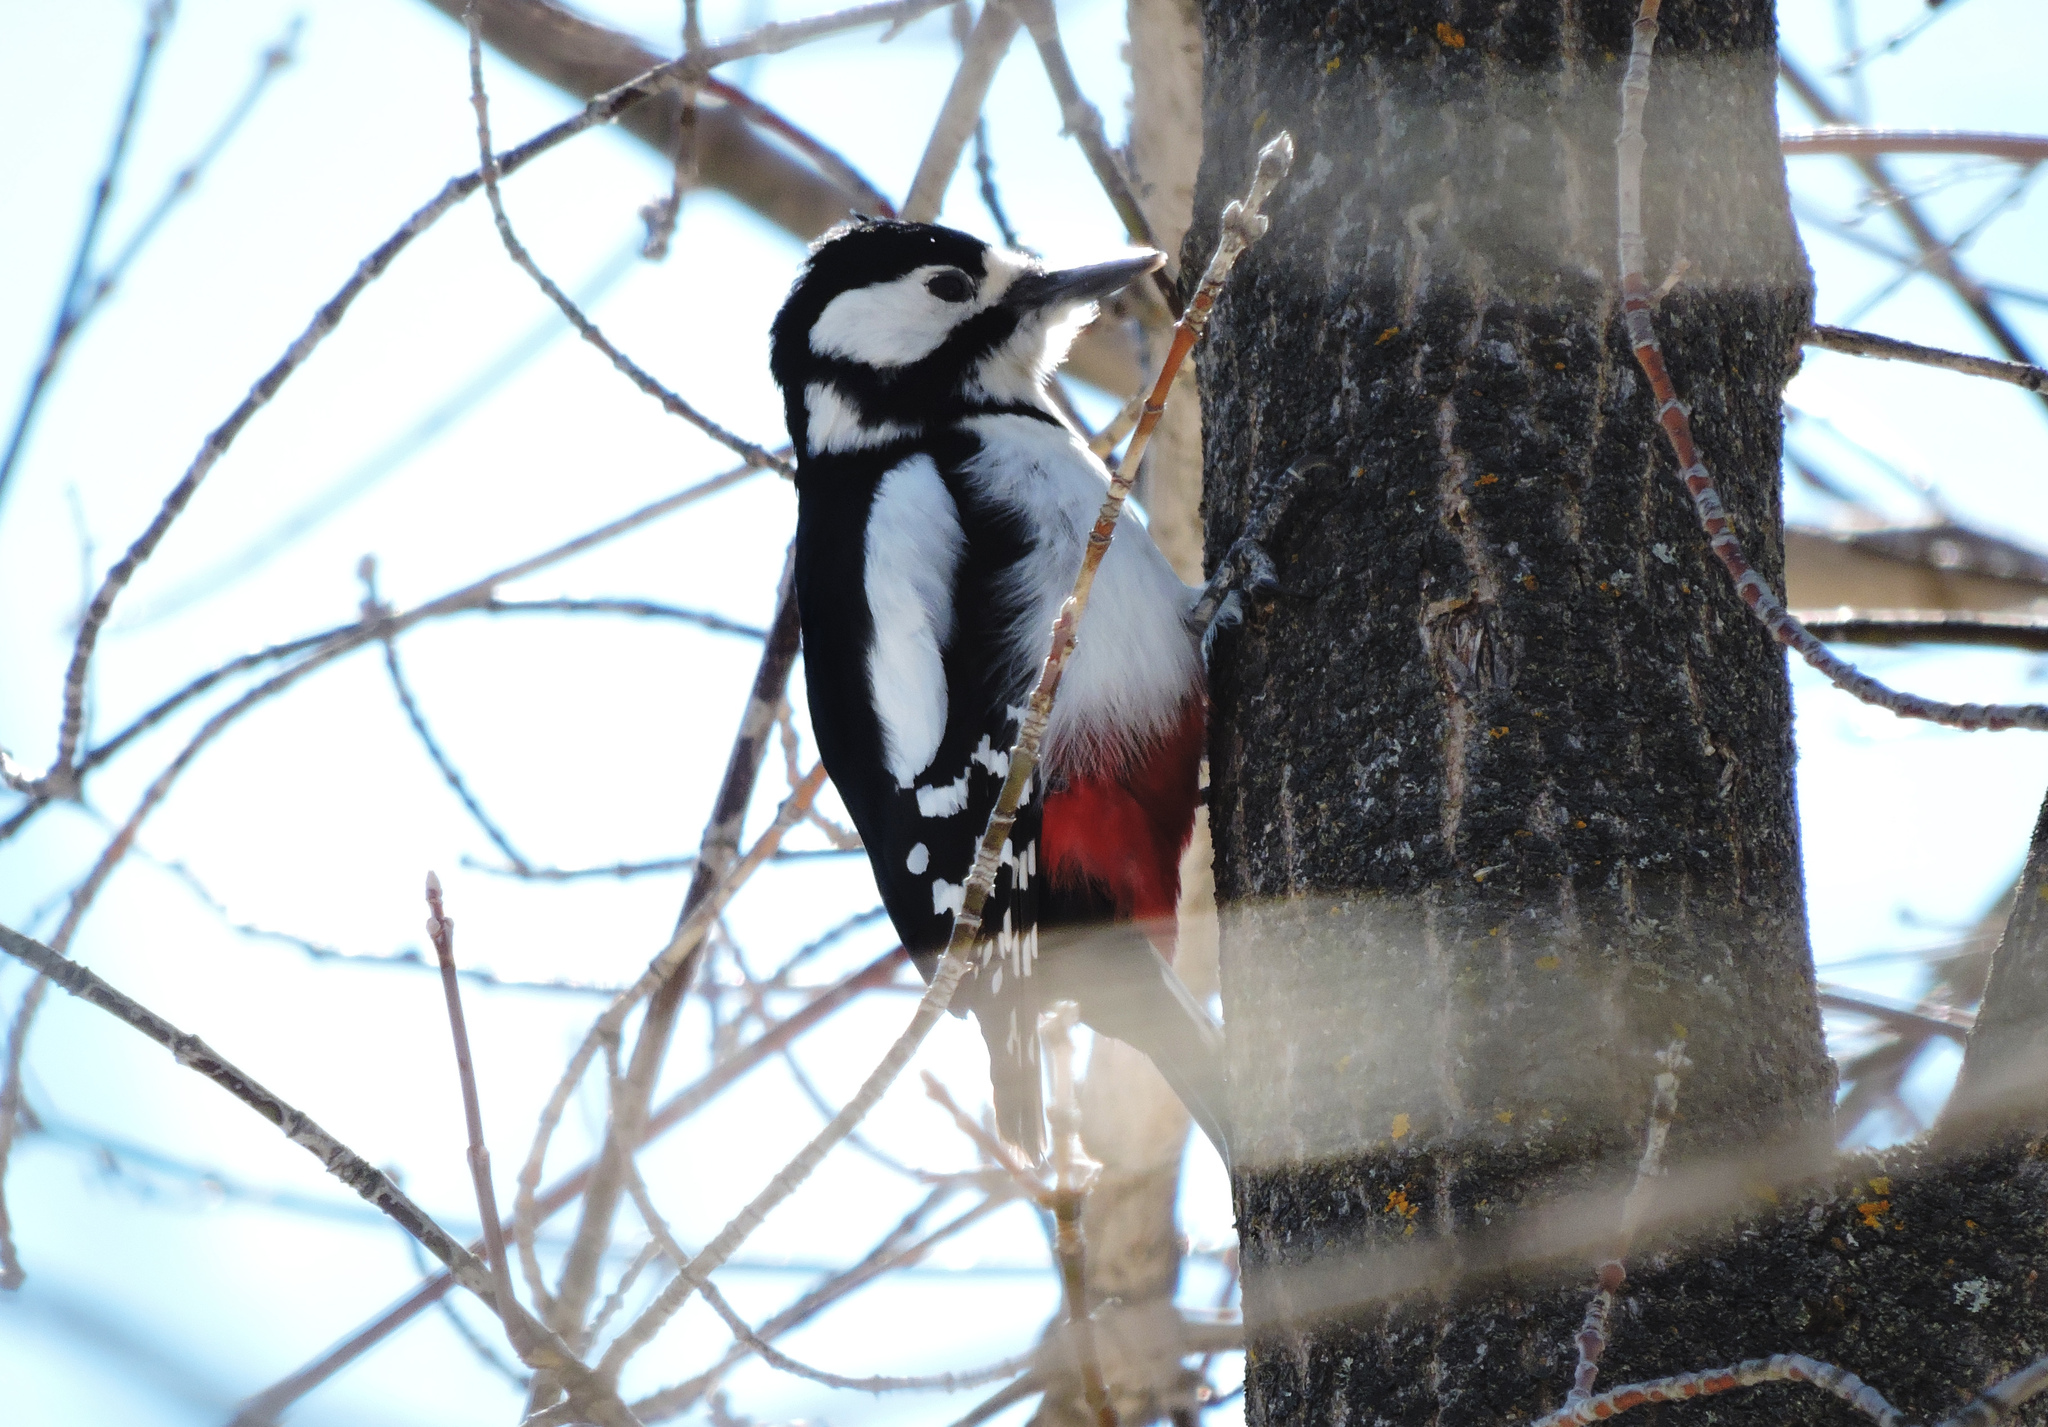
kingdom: Animalia
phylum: Chordata
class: Aves
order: Piciformes
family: Picidae
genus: Dendrocopos
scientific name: Dendrocopos major
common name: Great spotted woodpecker
